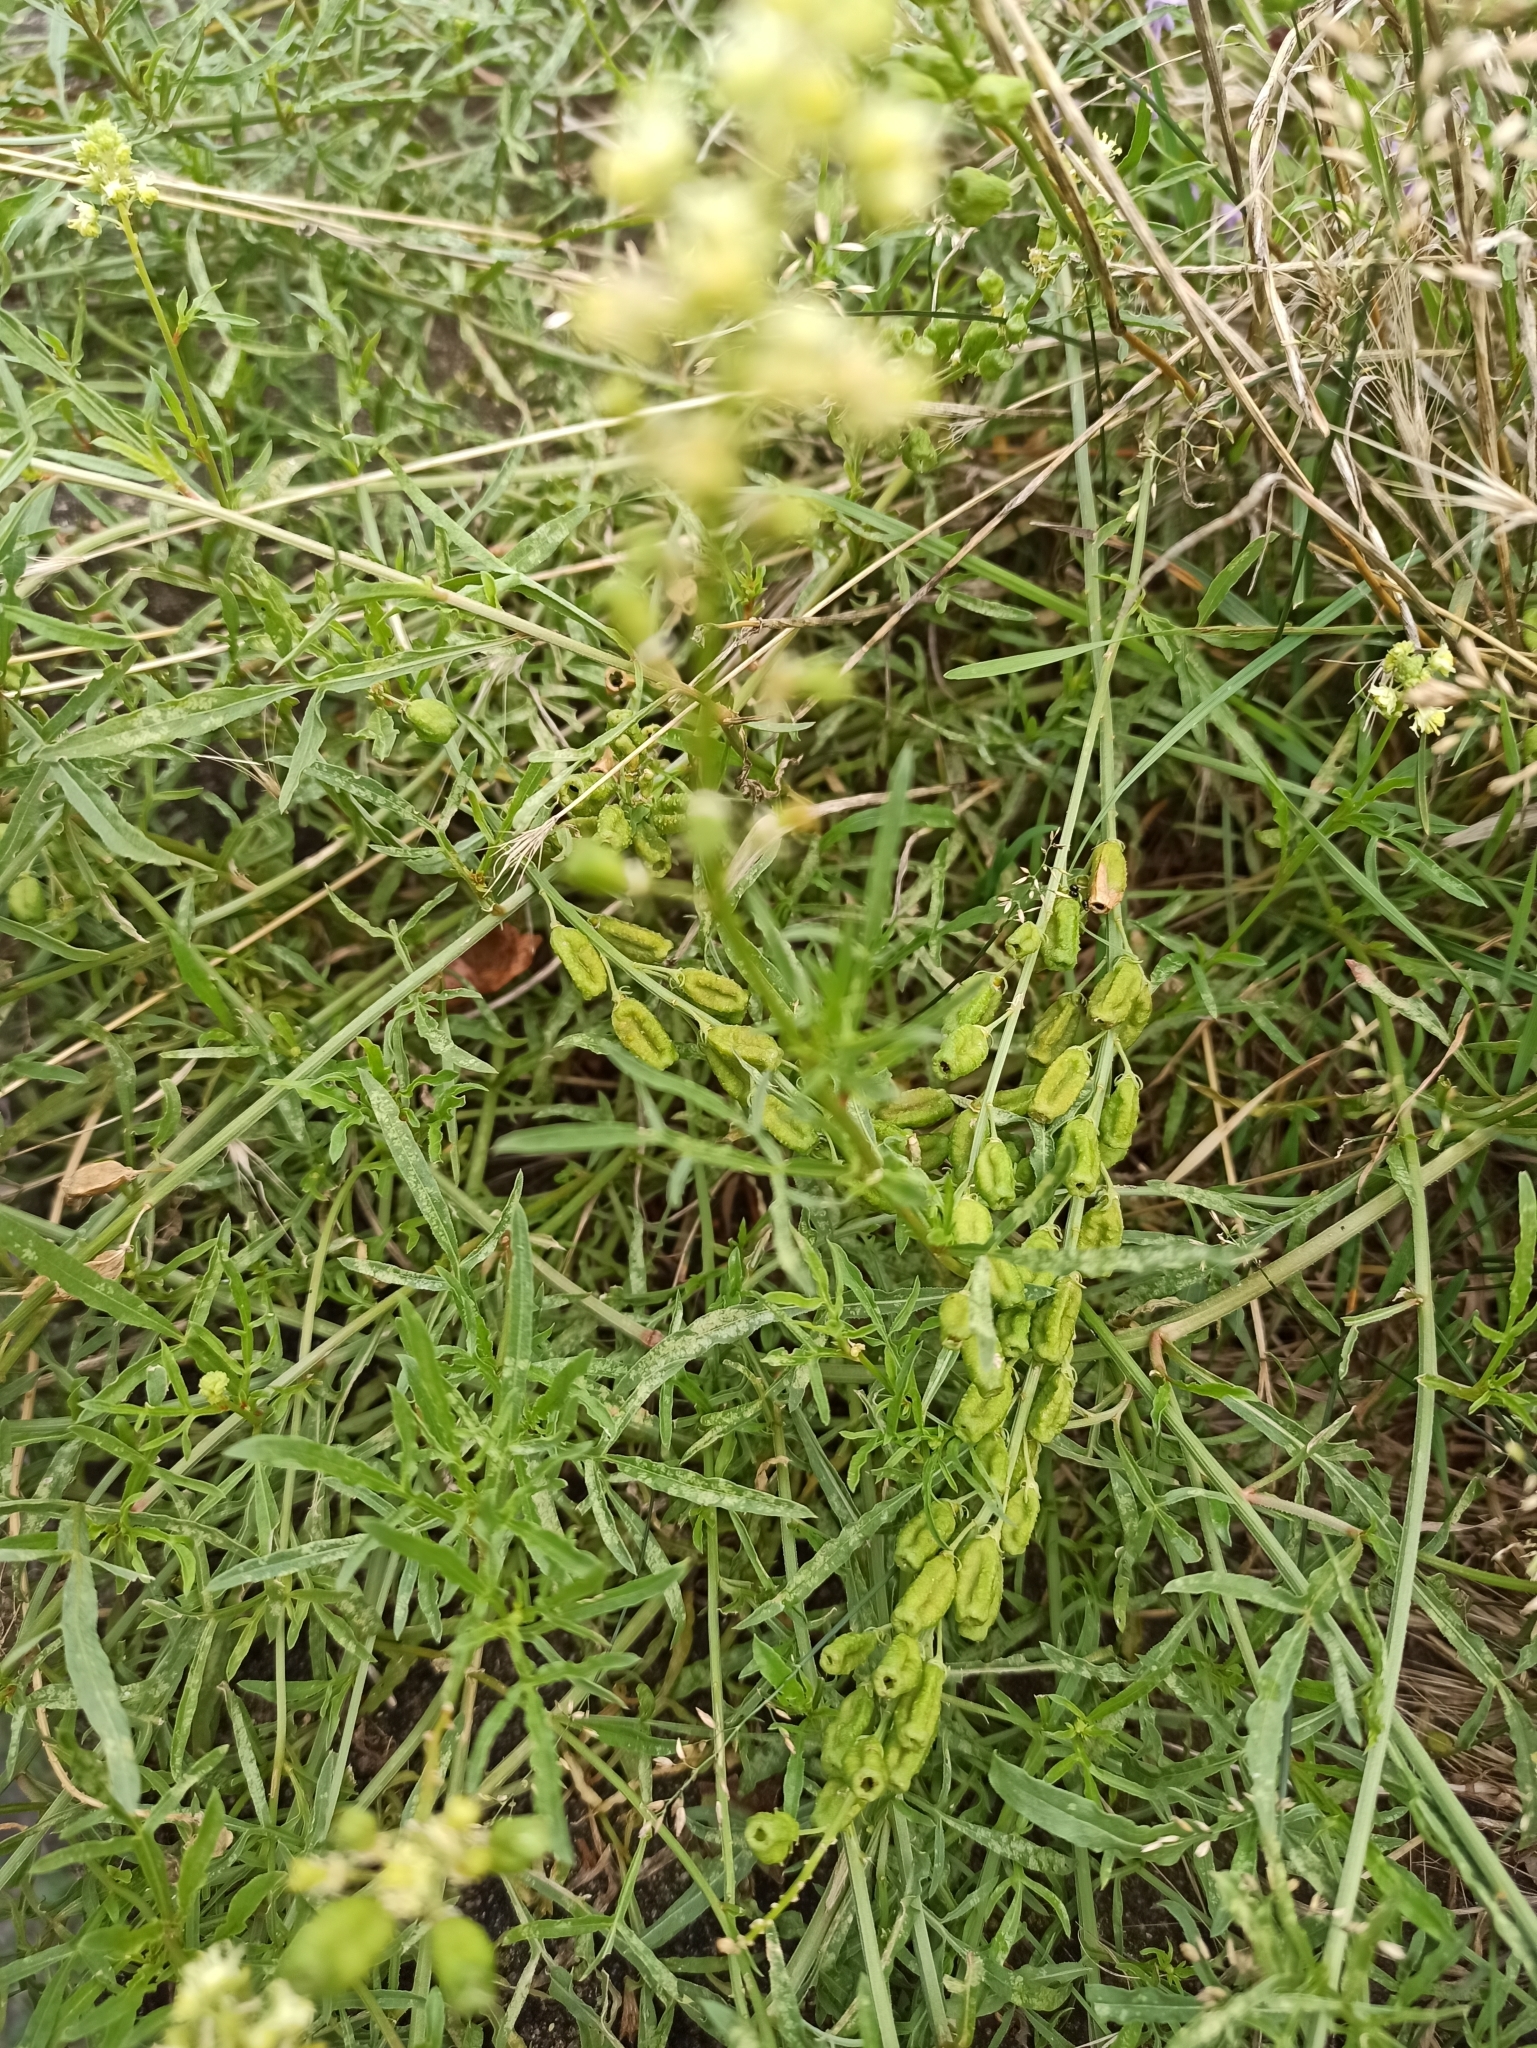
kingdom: Plantae
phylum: Tracheophyta
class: Magnoliopsida
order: Brassicales
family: Resedaceae
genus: Reseda
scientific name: Reseda lutea
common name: Wild mignonette
